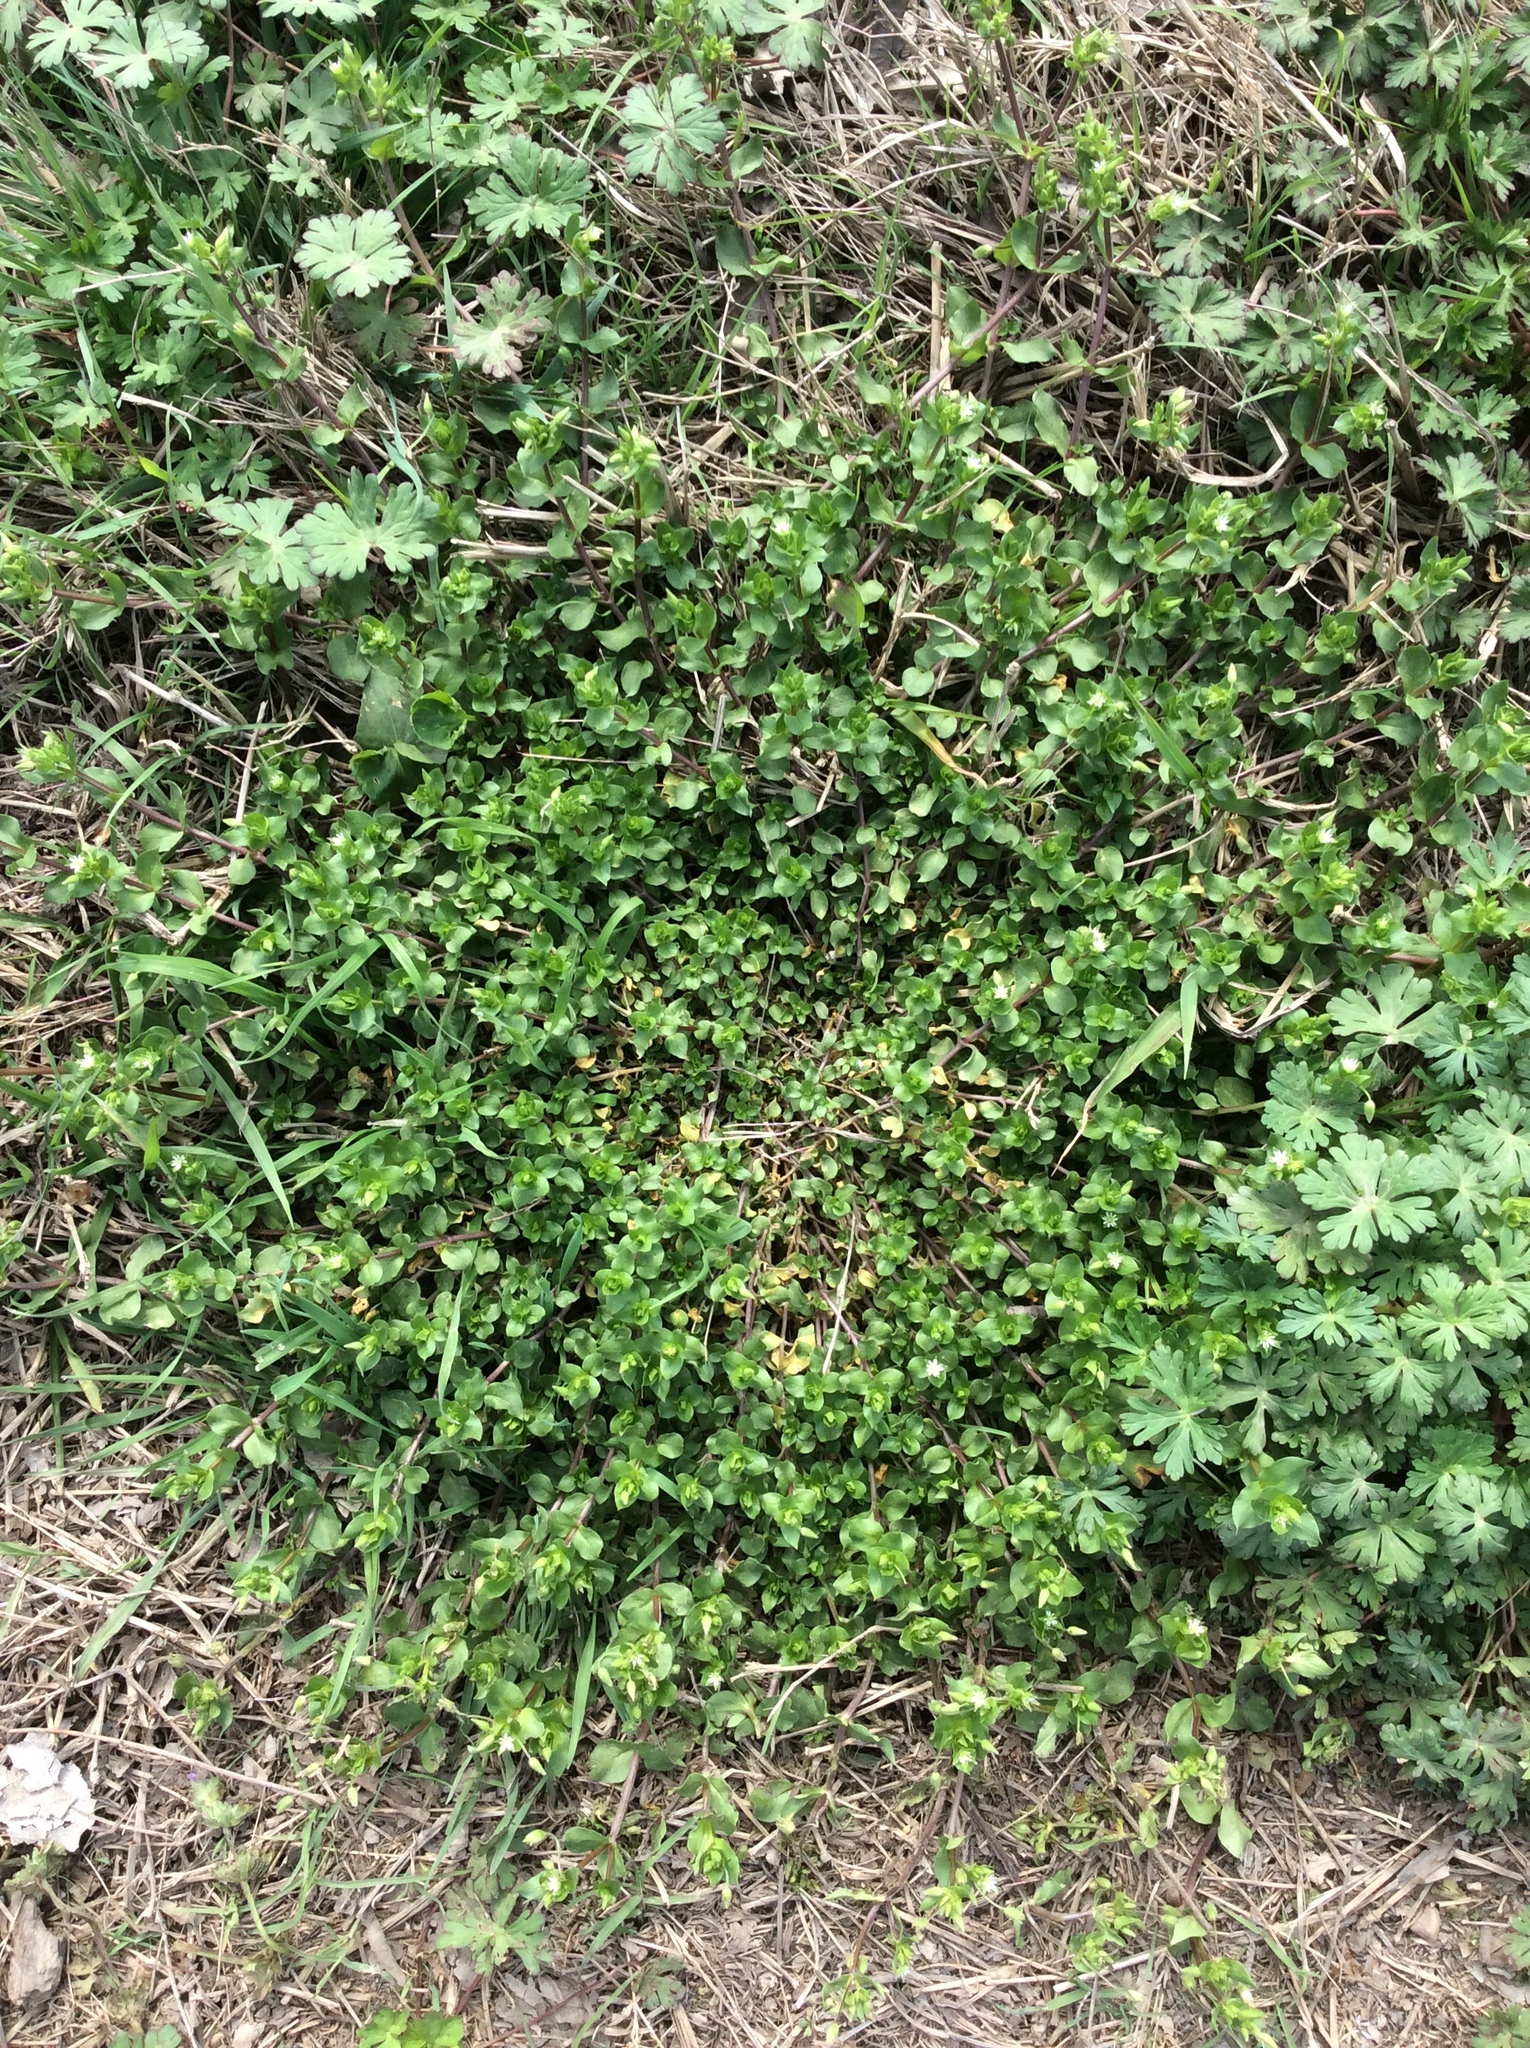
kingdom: Plantae
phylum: Tracheophyta
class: Magnoliopsida
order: Caryophyllales
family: Caryophyllaceae
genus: Stellaria
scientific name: Stellaria media
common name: Common chickweed
